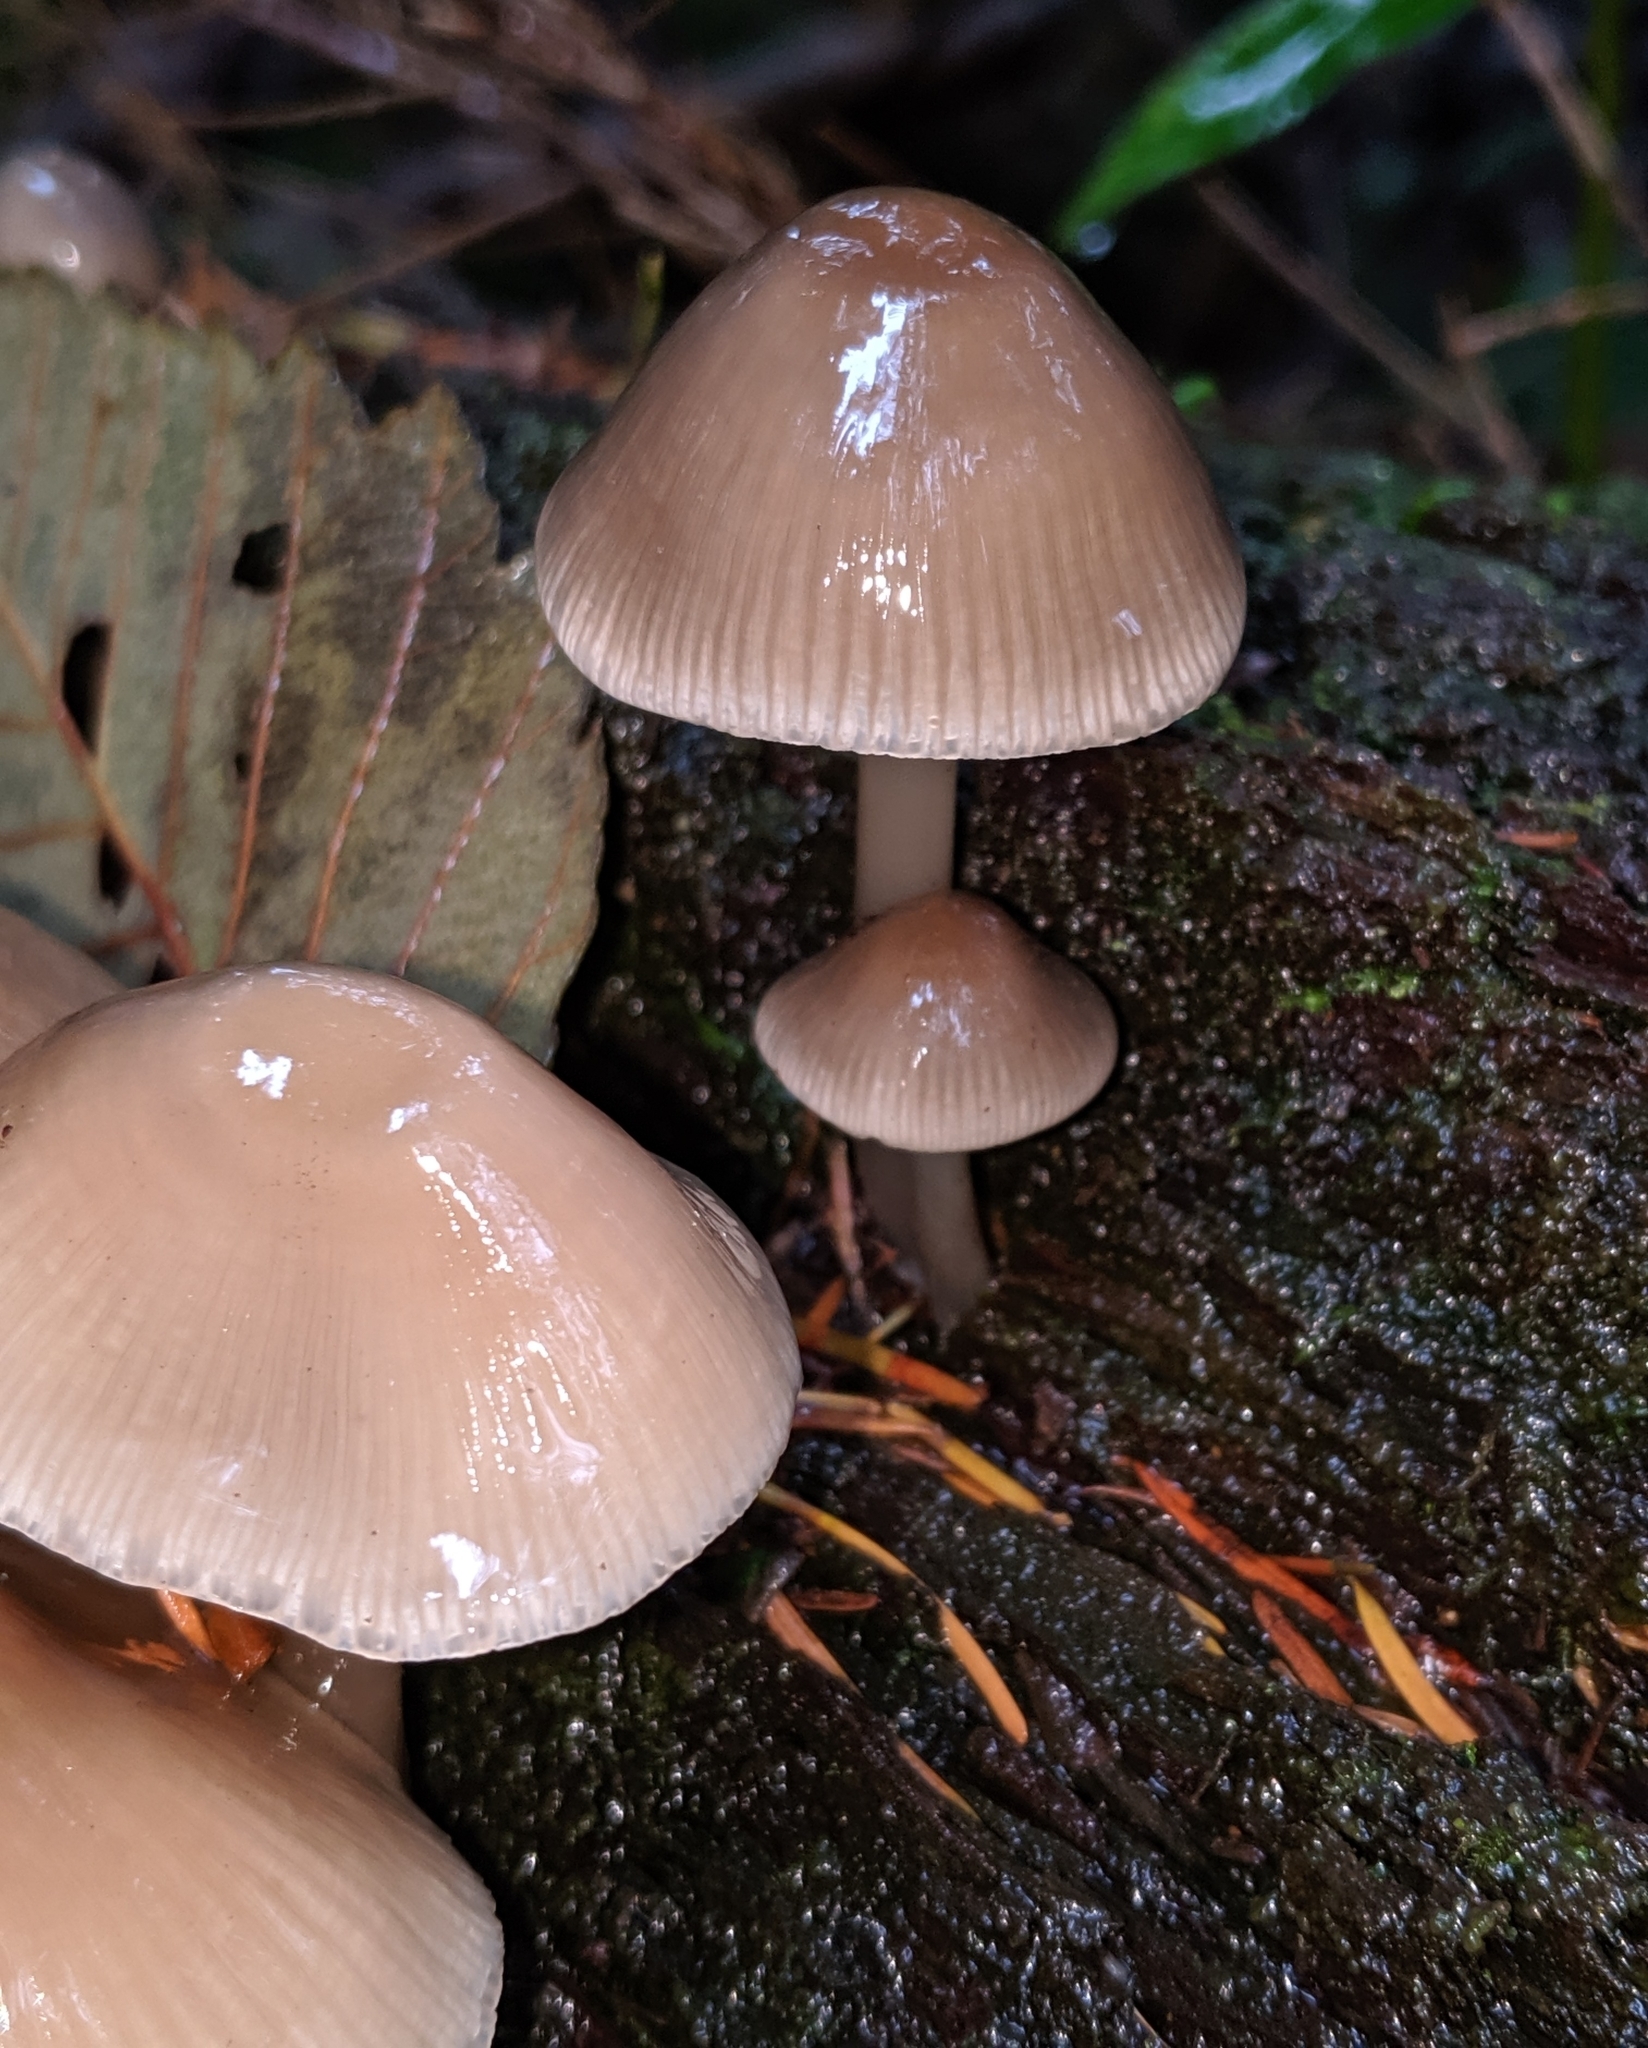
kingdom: Fungi
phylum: Basidiomycota
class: Agaricomycetes
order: Agaricales
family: Mycenaceae
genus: Mycena
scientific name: Mycena galericulata
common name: Bonnet mycena
